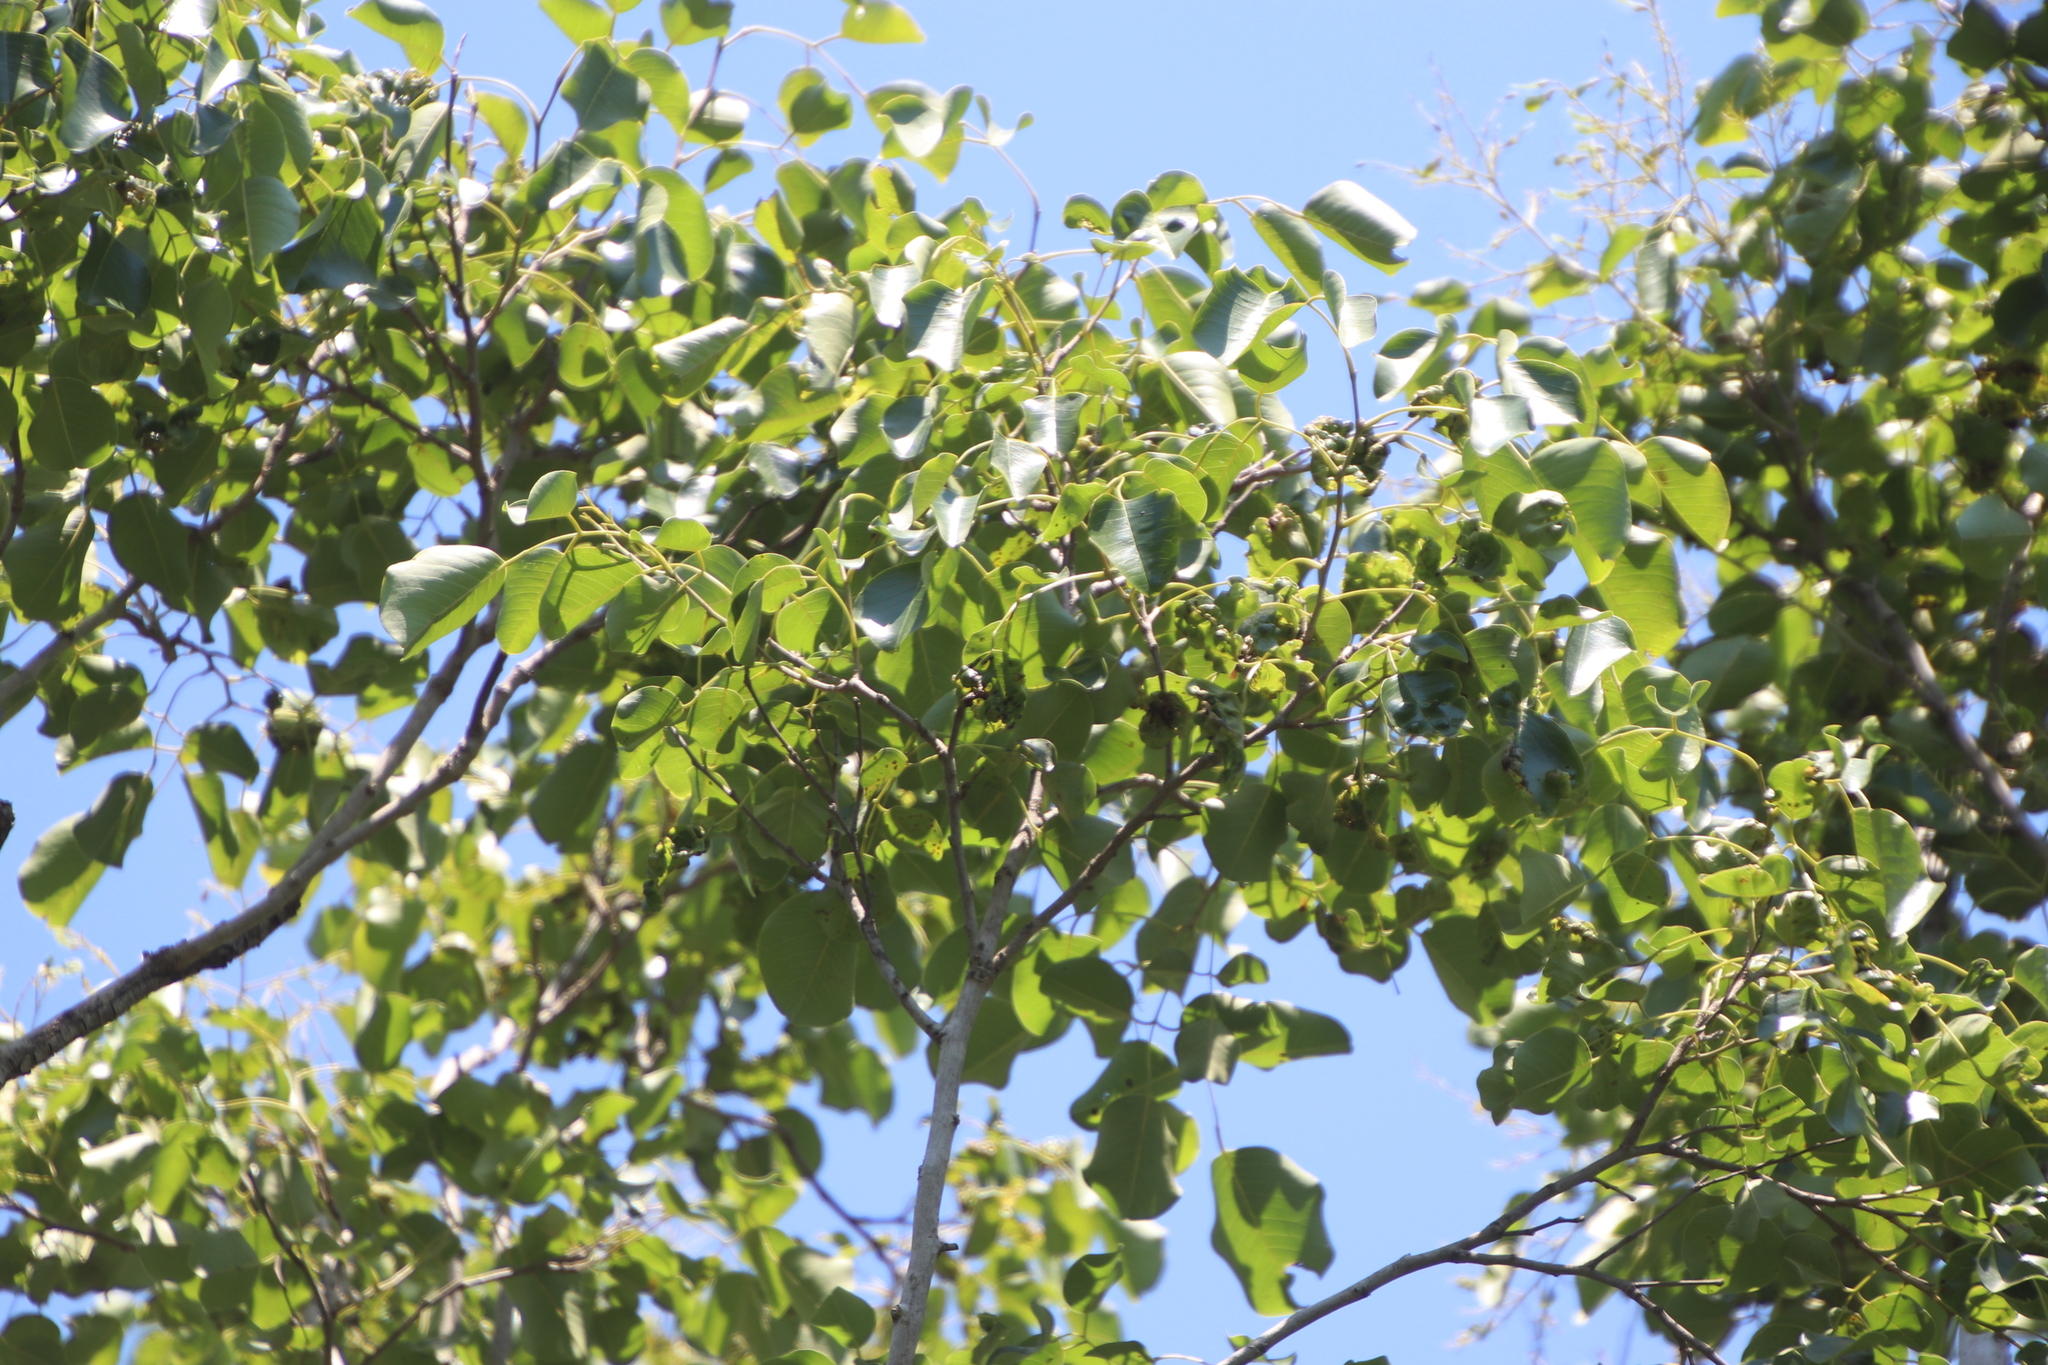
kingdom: Plantae
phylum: Tracheophyta
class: Magnoliopsida
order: Fabales
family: Fabaceae
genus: Pterocarpus
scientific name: Pterocarpus rotundifolius
